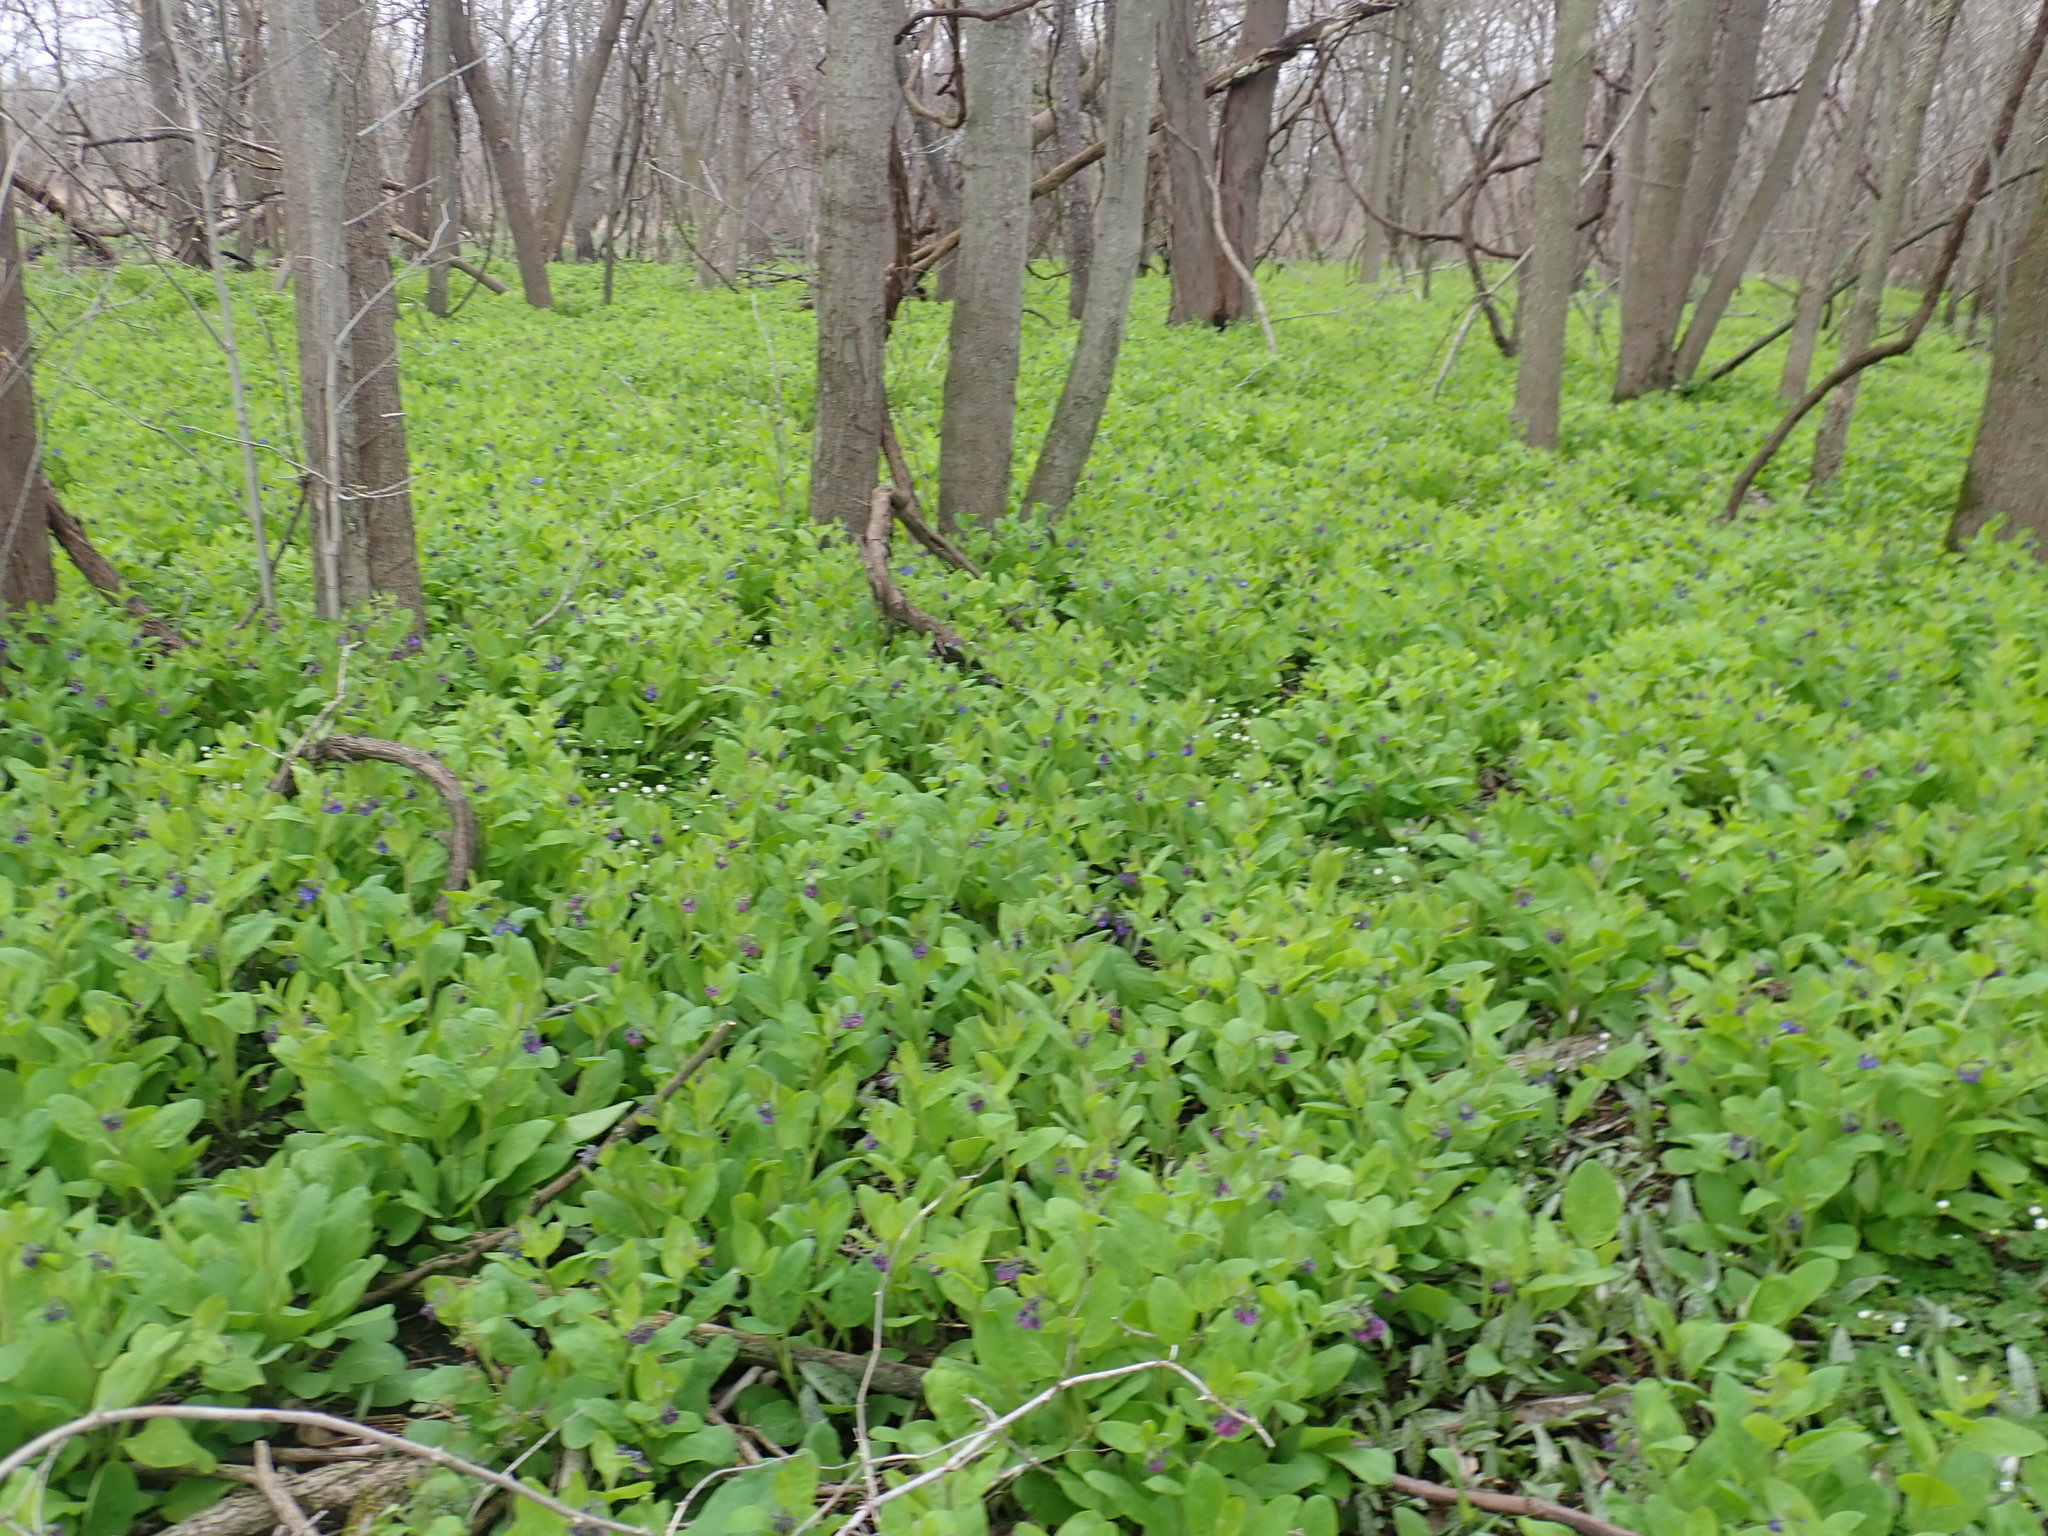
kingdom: Plantae
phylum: Tracheophyta
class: Magnoliopsida
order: Boraginales
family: Boraginaceae
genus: Mertensia
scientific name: Mertensia virginica
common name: Virginia bluebells
